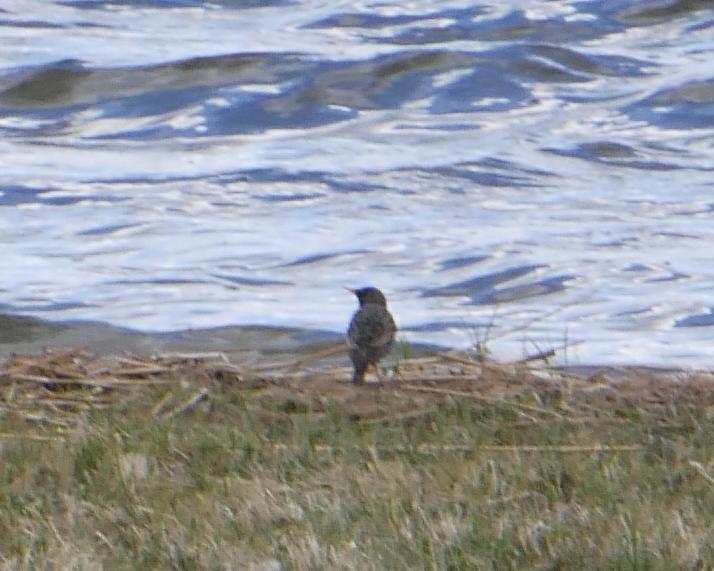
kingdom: Animalia
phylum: Chordata
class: Aves
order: Passeriformes
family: Sturnidae
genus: Sturnus
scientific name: Sturnus vulgaris
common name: Common starling
